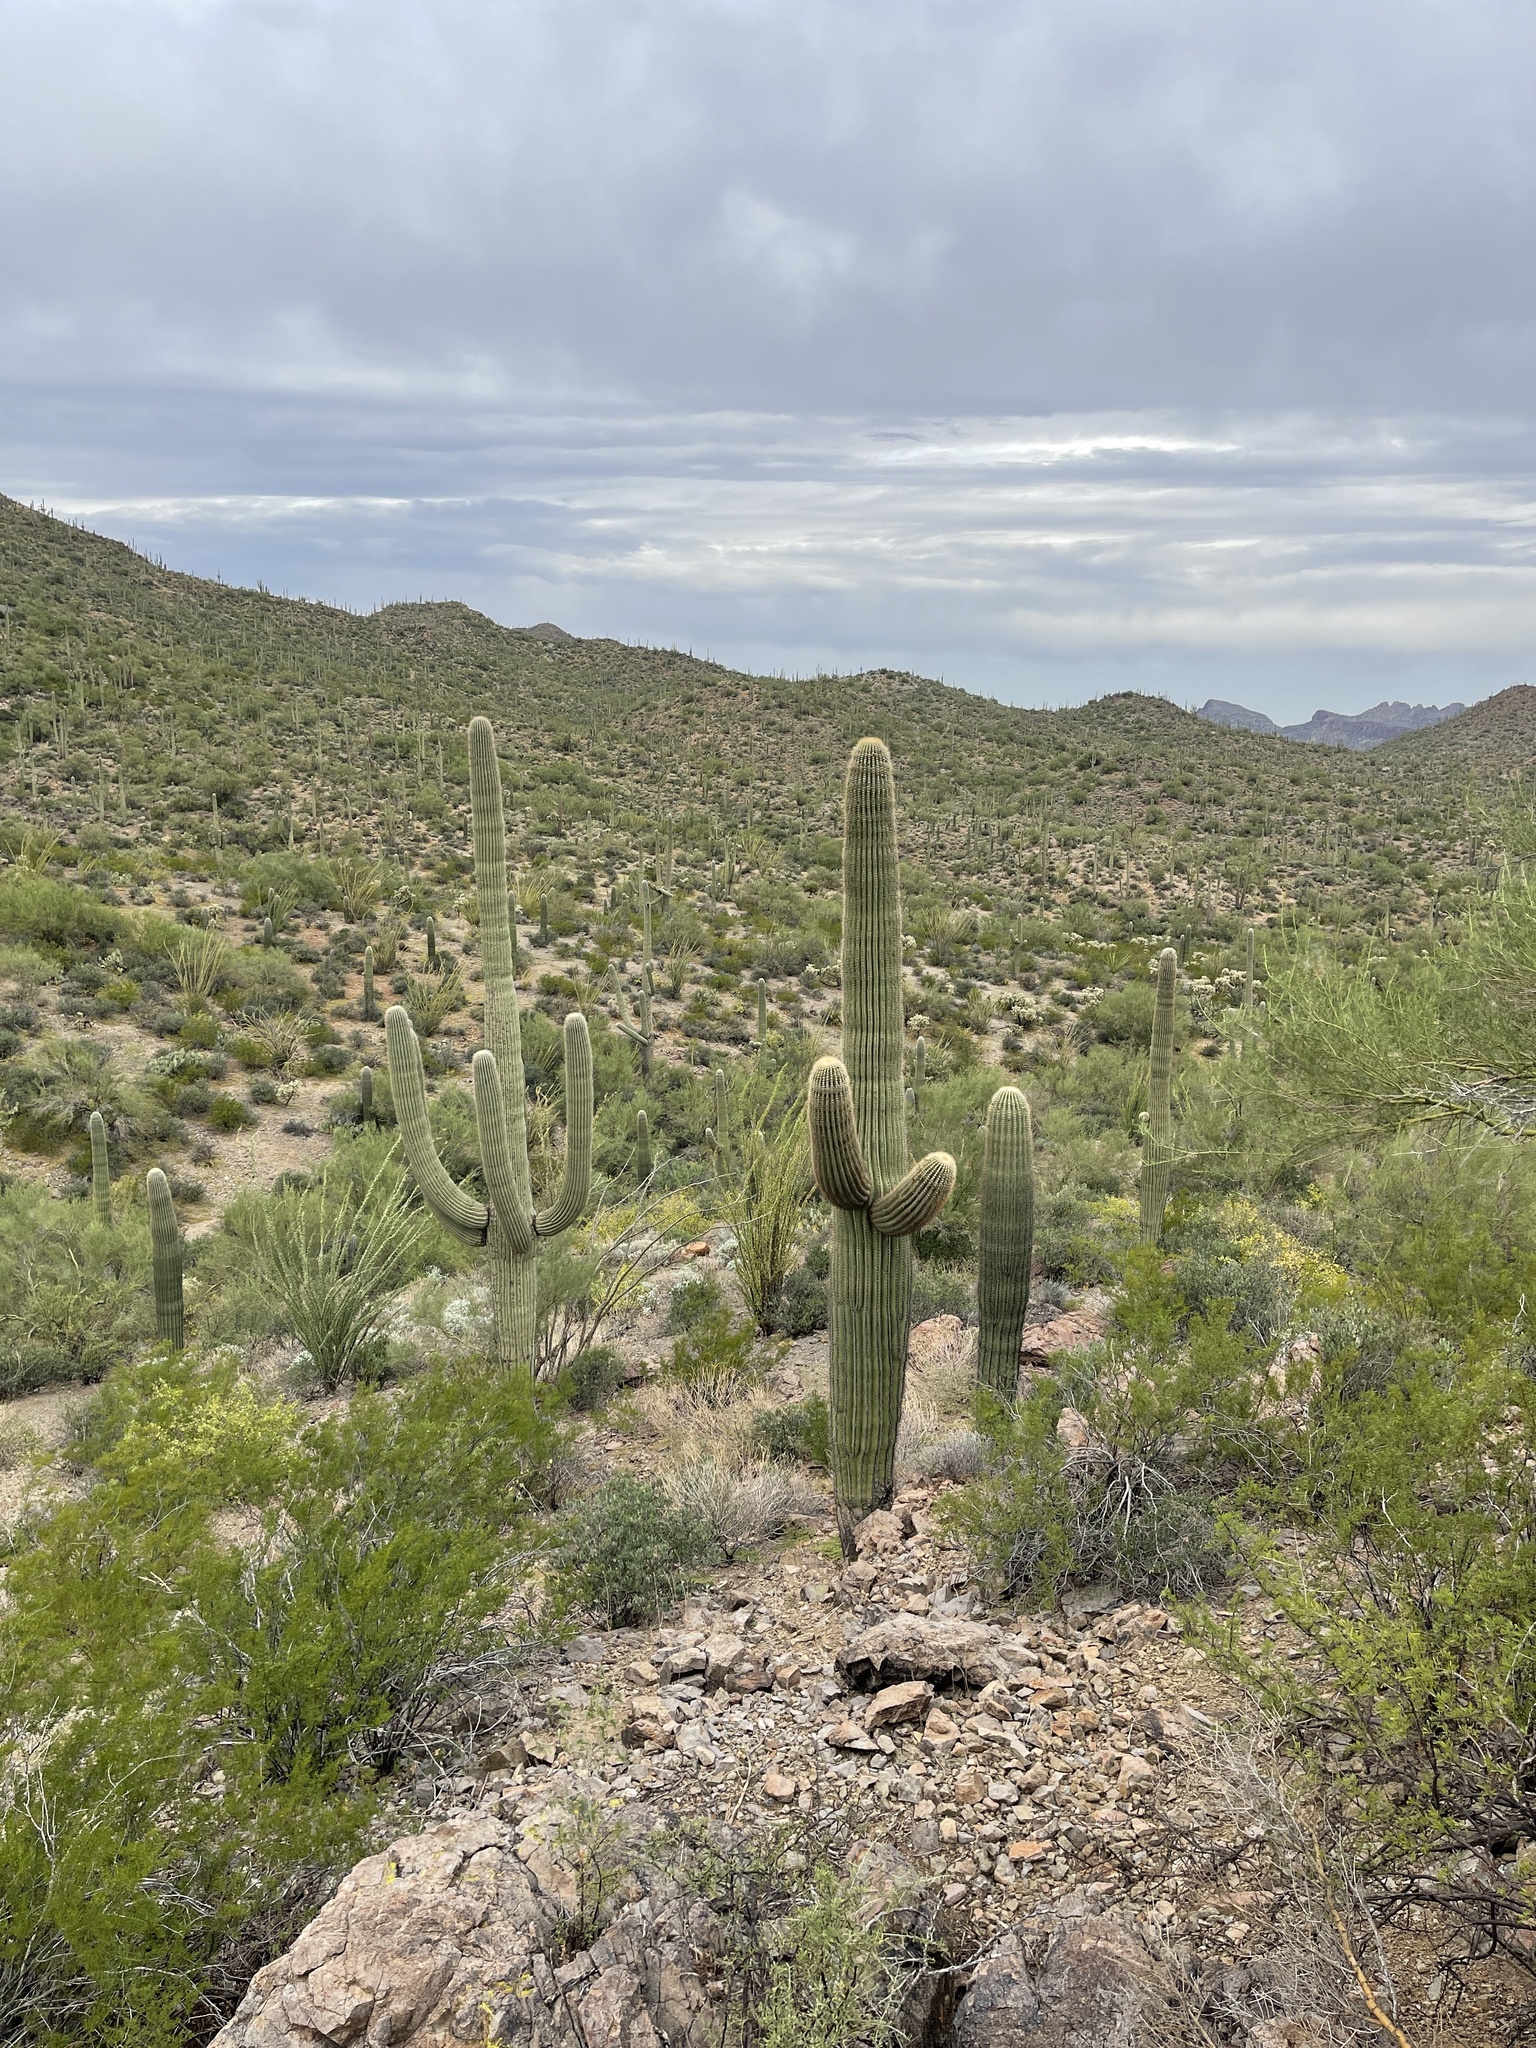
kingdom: Plantae
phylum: Tracheophyta
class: Magnoliopsida
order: Caryophyllales
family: Cactaceae
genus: Carnegiea
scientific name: Carnegiea gigantea
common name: Saguaro
